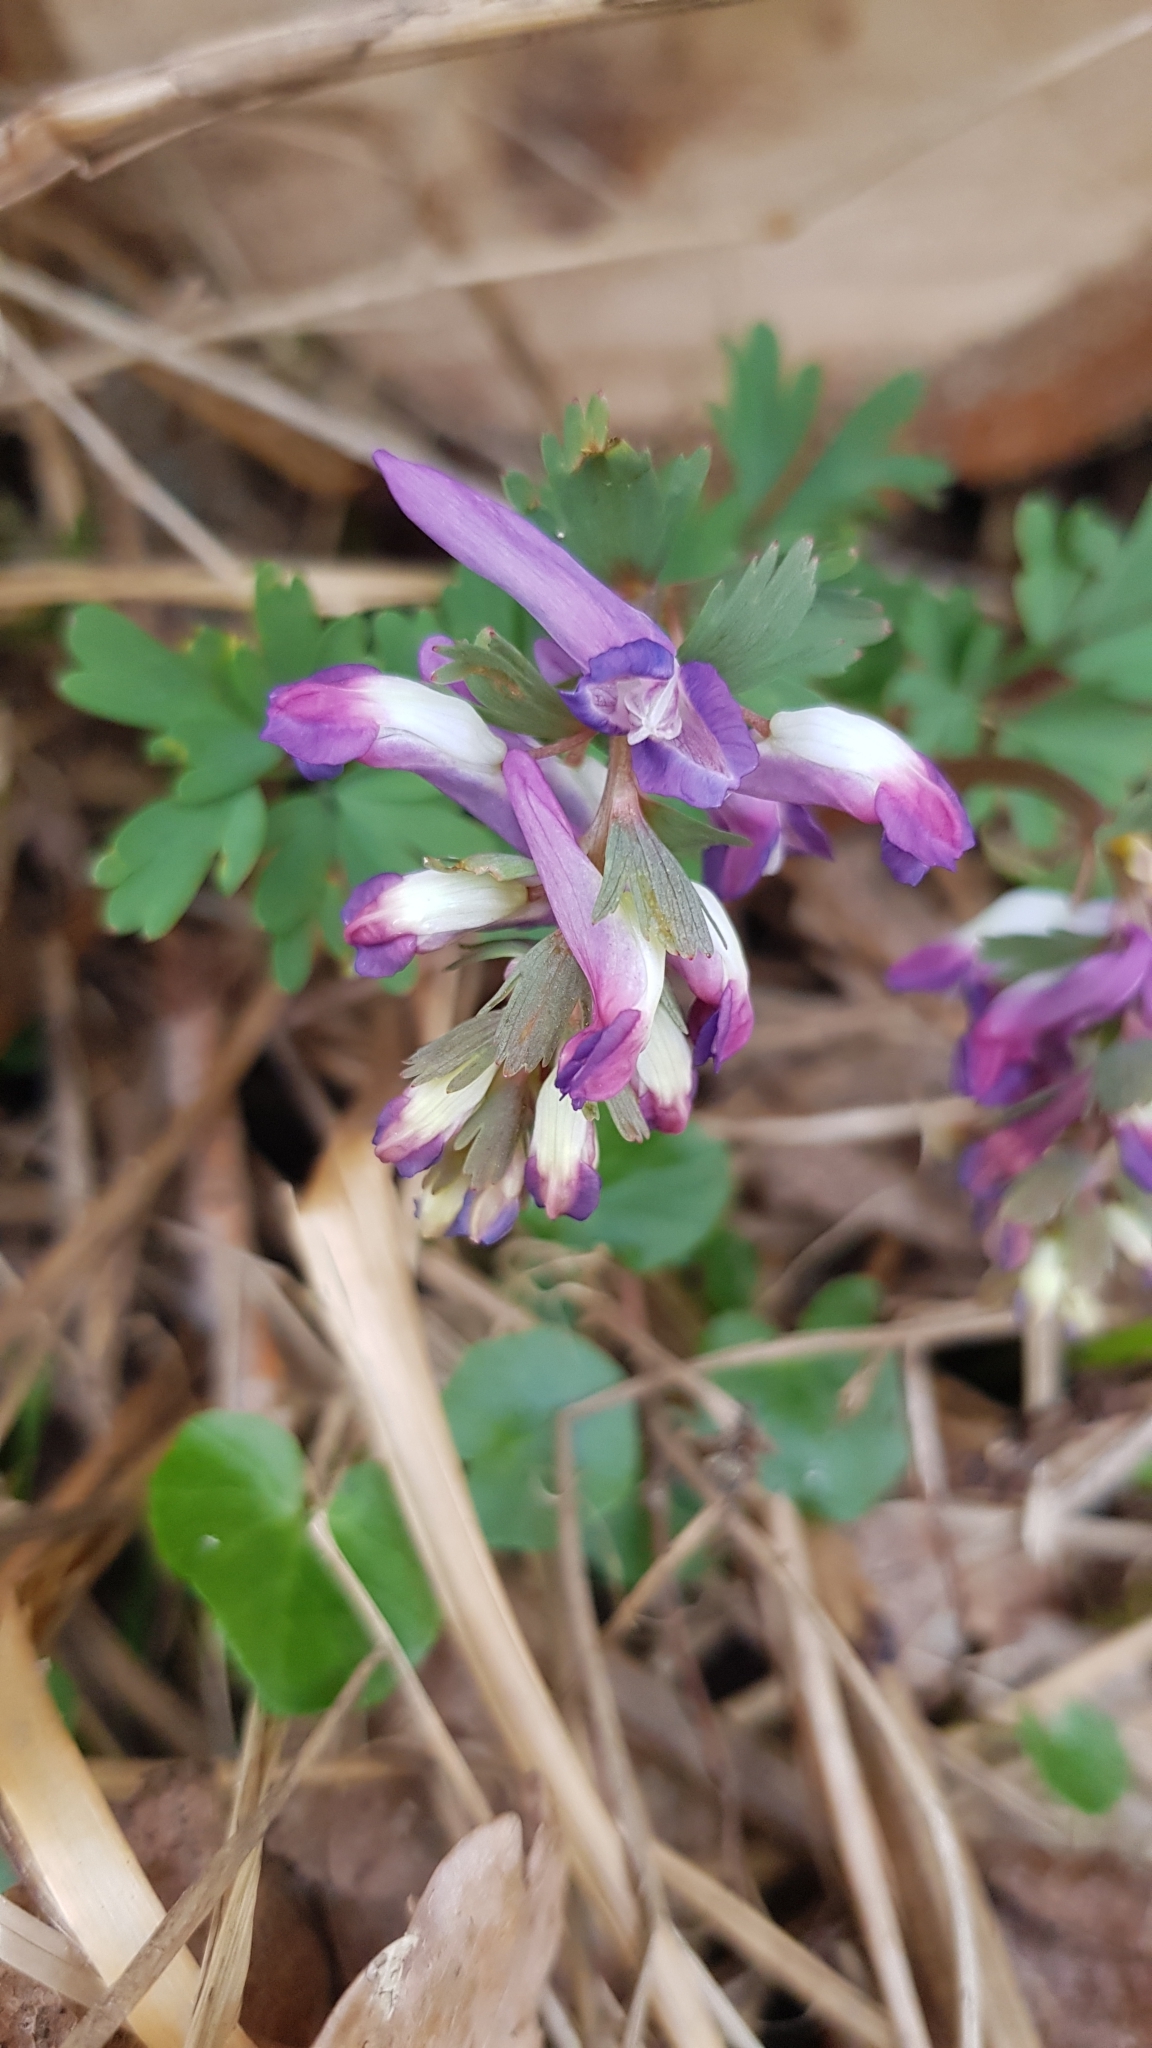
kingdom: Plantae
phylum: Tracheophyta
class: Magnoliopsida
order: Ranunculales
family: Papaveraceae
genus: Corydalis
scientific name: Corydalis solida
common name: Bird-in-a-bush
